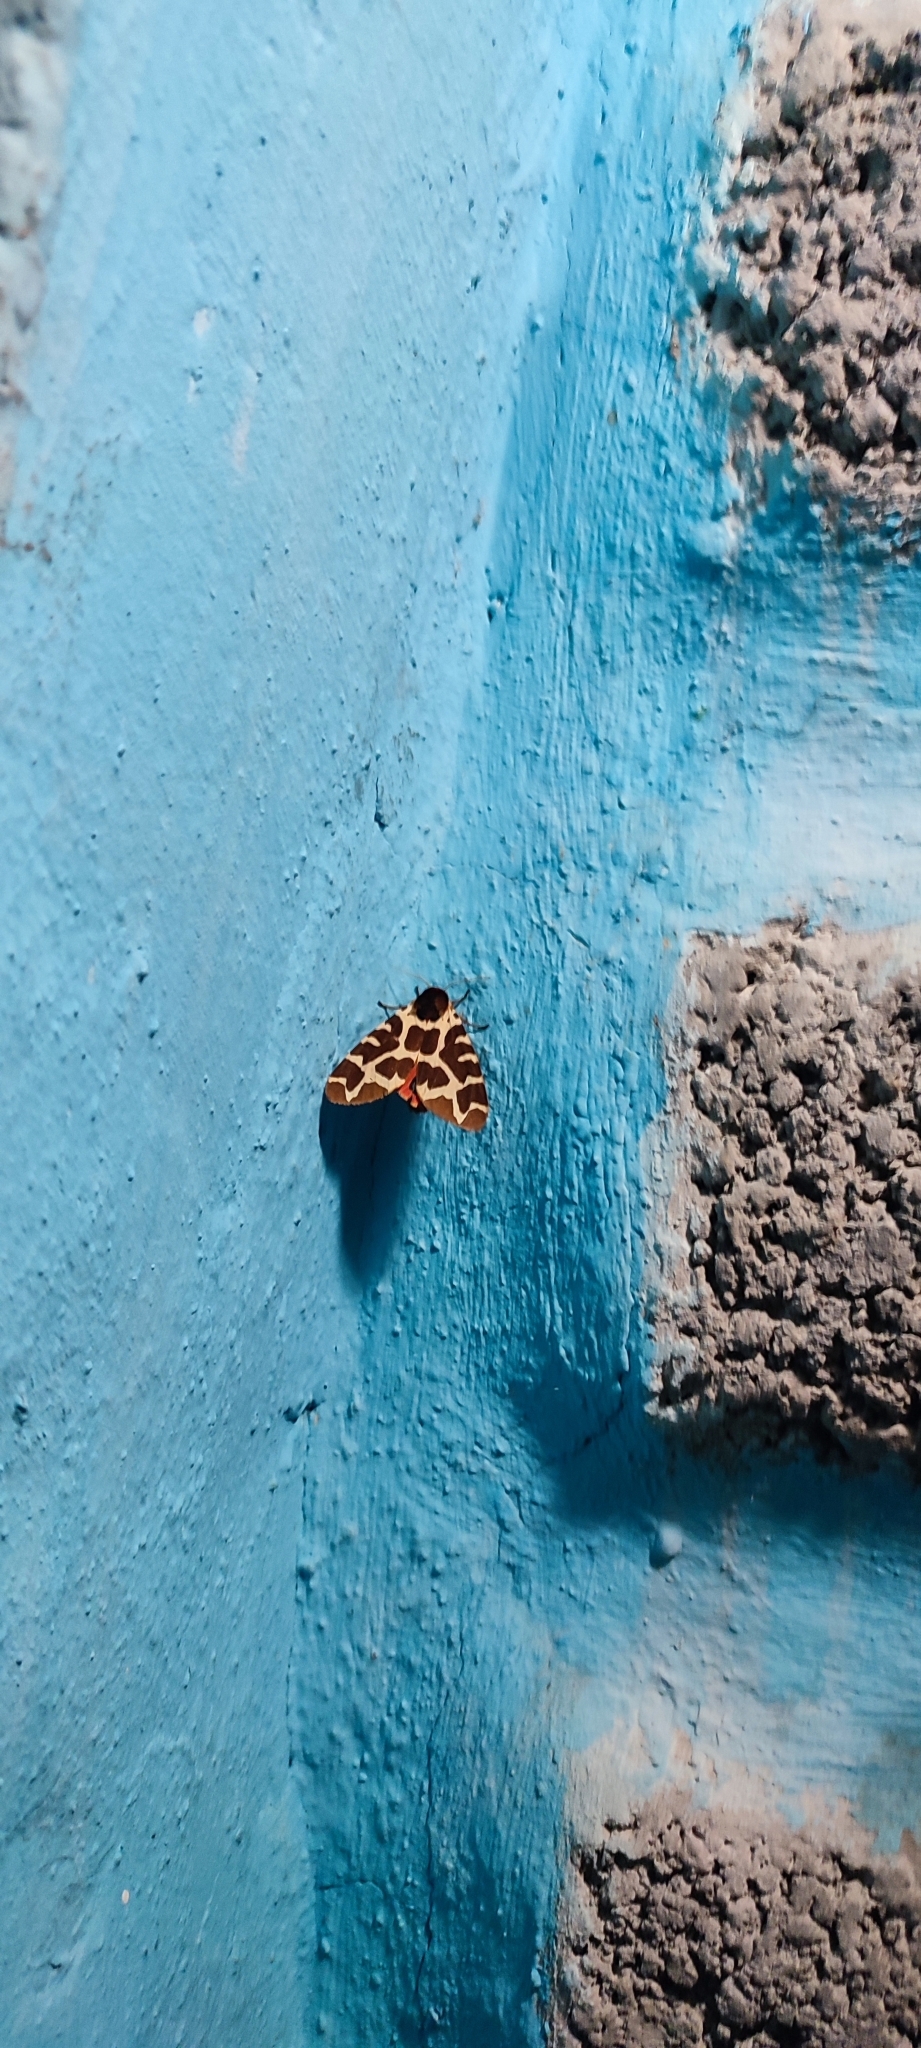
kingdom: Animalia
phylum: Arthropoda
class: Insecta
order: Lepidoptera
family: Erebidae
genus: Arctia
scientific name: Arctia caja
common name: Garden tiger
